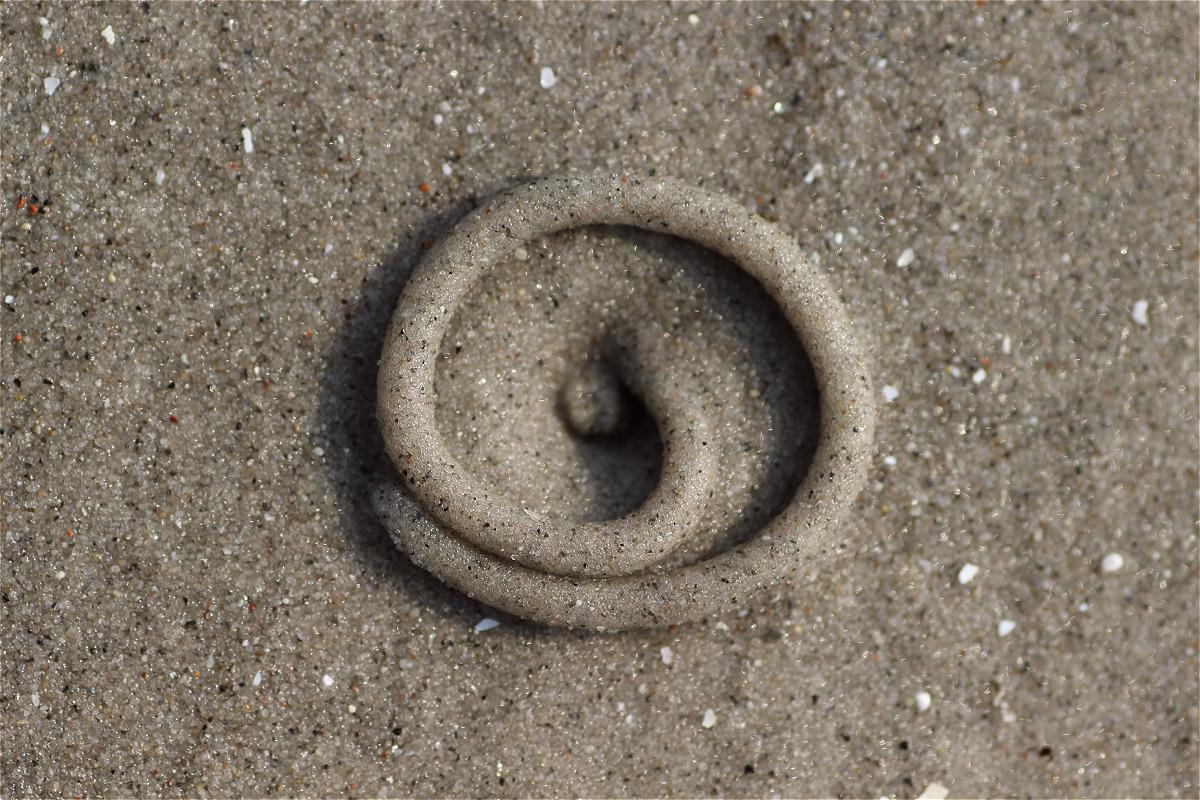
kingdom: Animalia
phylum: Annelida
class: Polychaeta
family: Arenicolidae
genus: Arenicola
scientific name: Arenicola marina
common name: Blow lugworm
